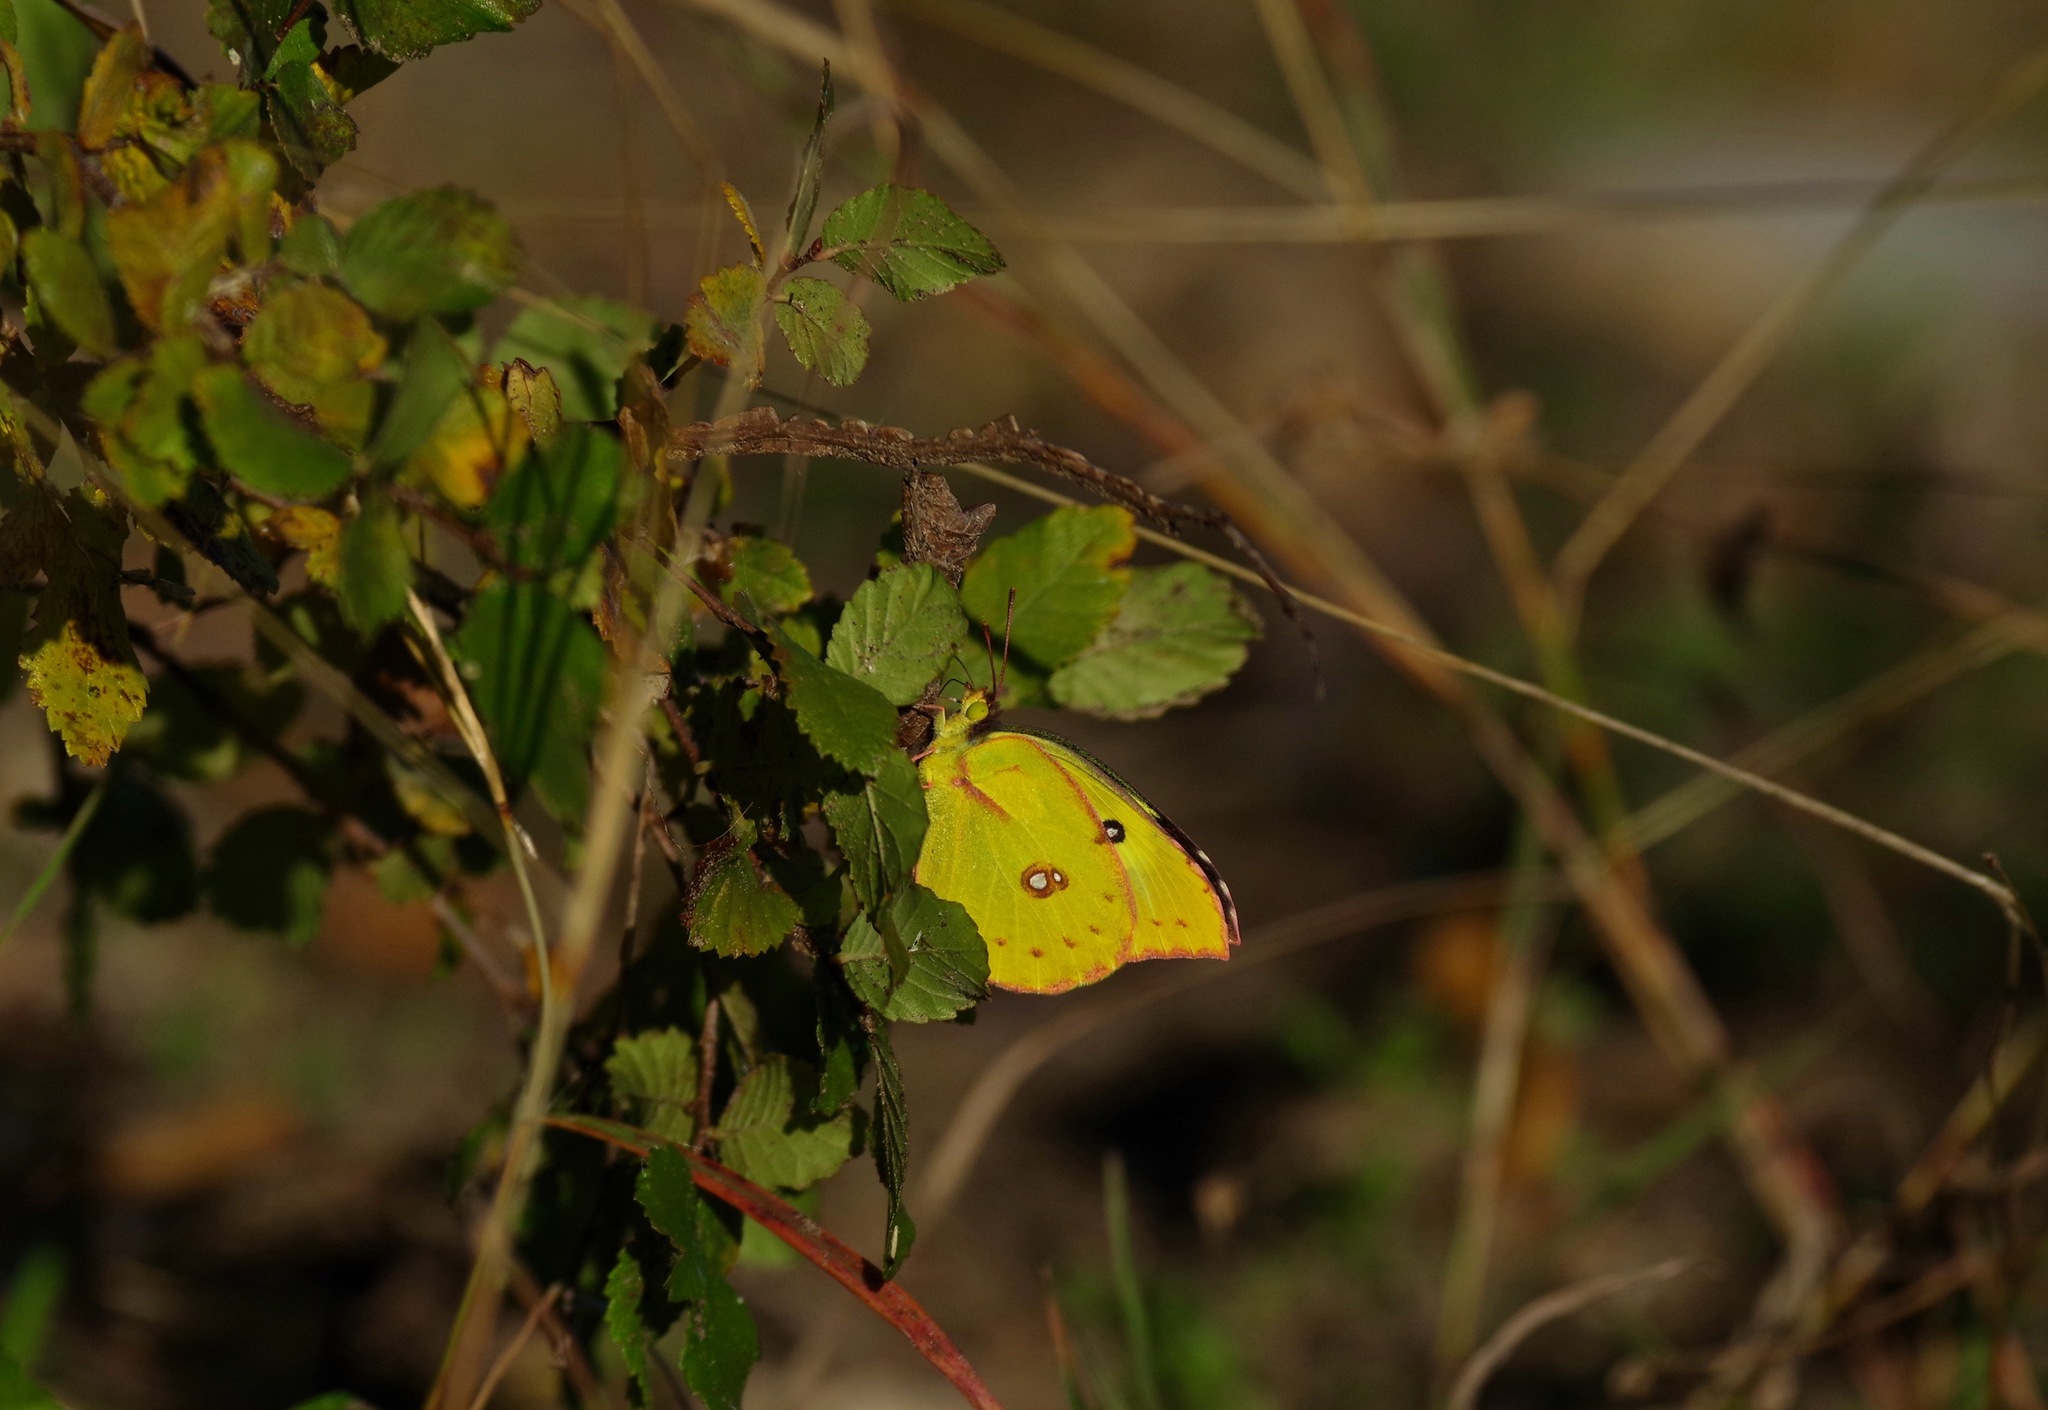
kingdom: Animalia
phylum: Arthropoda
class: Insecta
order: Lepidoptera
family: Pieridae
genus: Zerene
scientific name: Zerene cesonia
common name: Southern dogface
